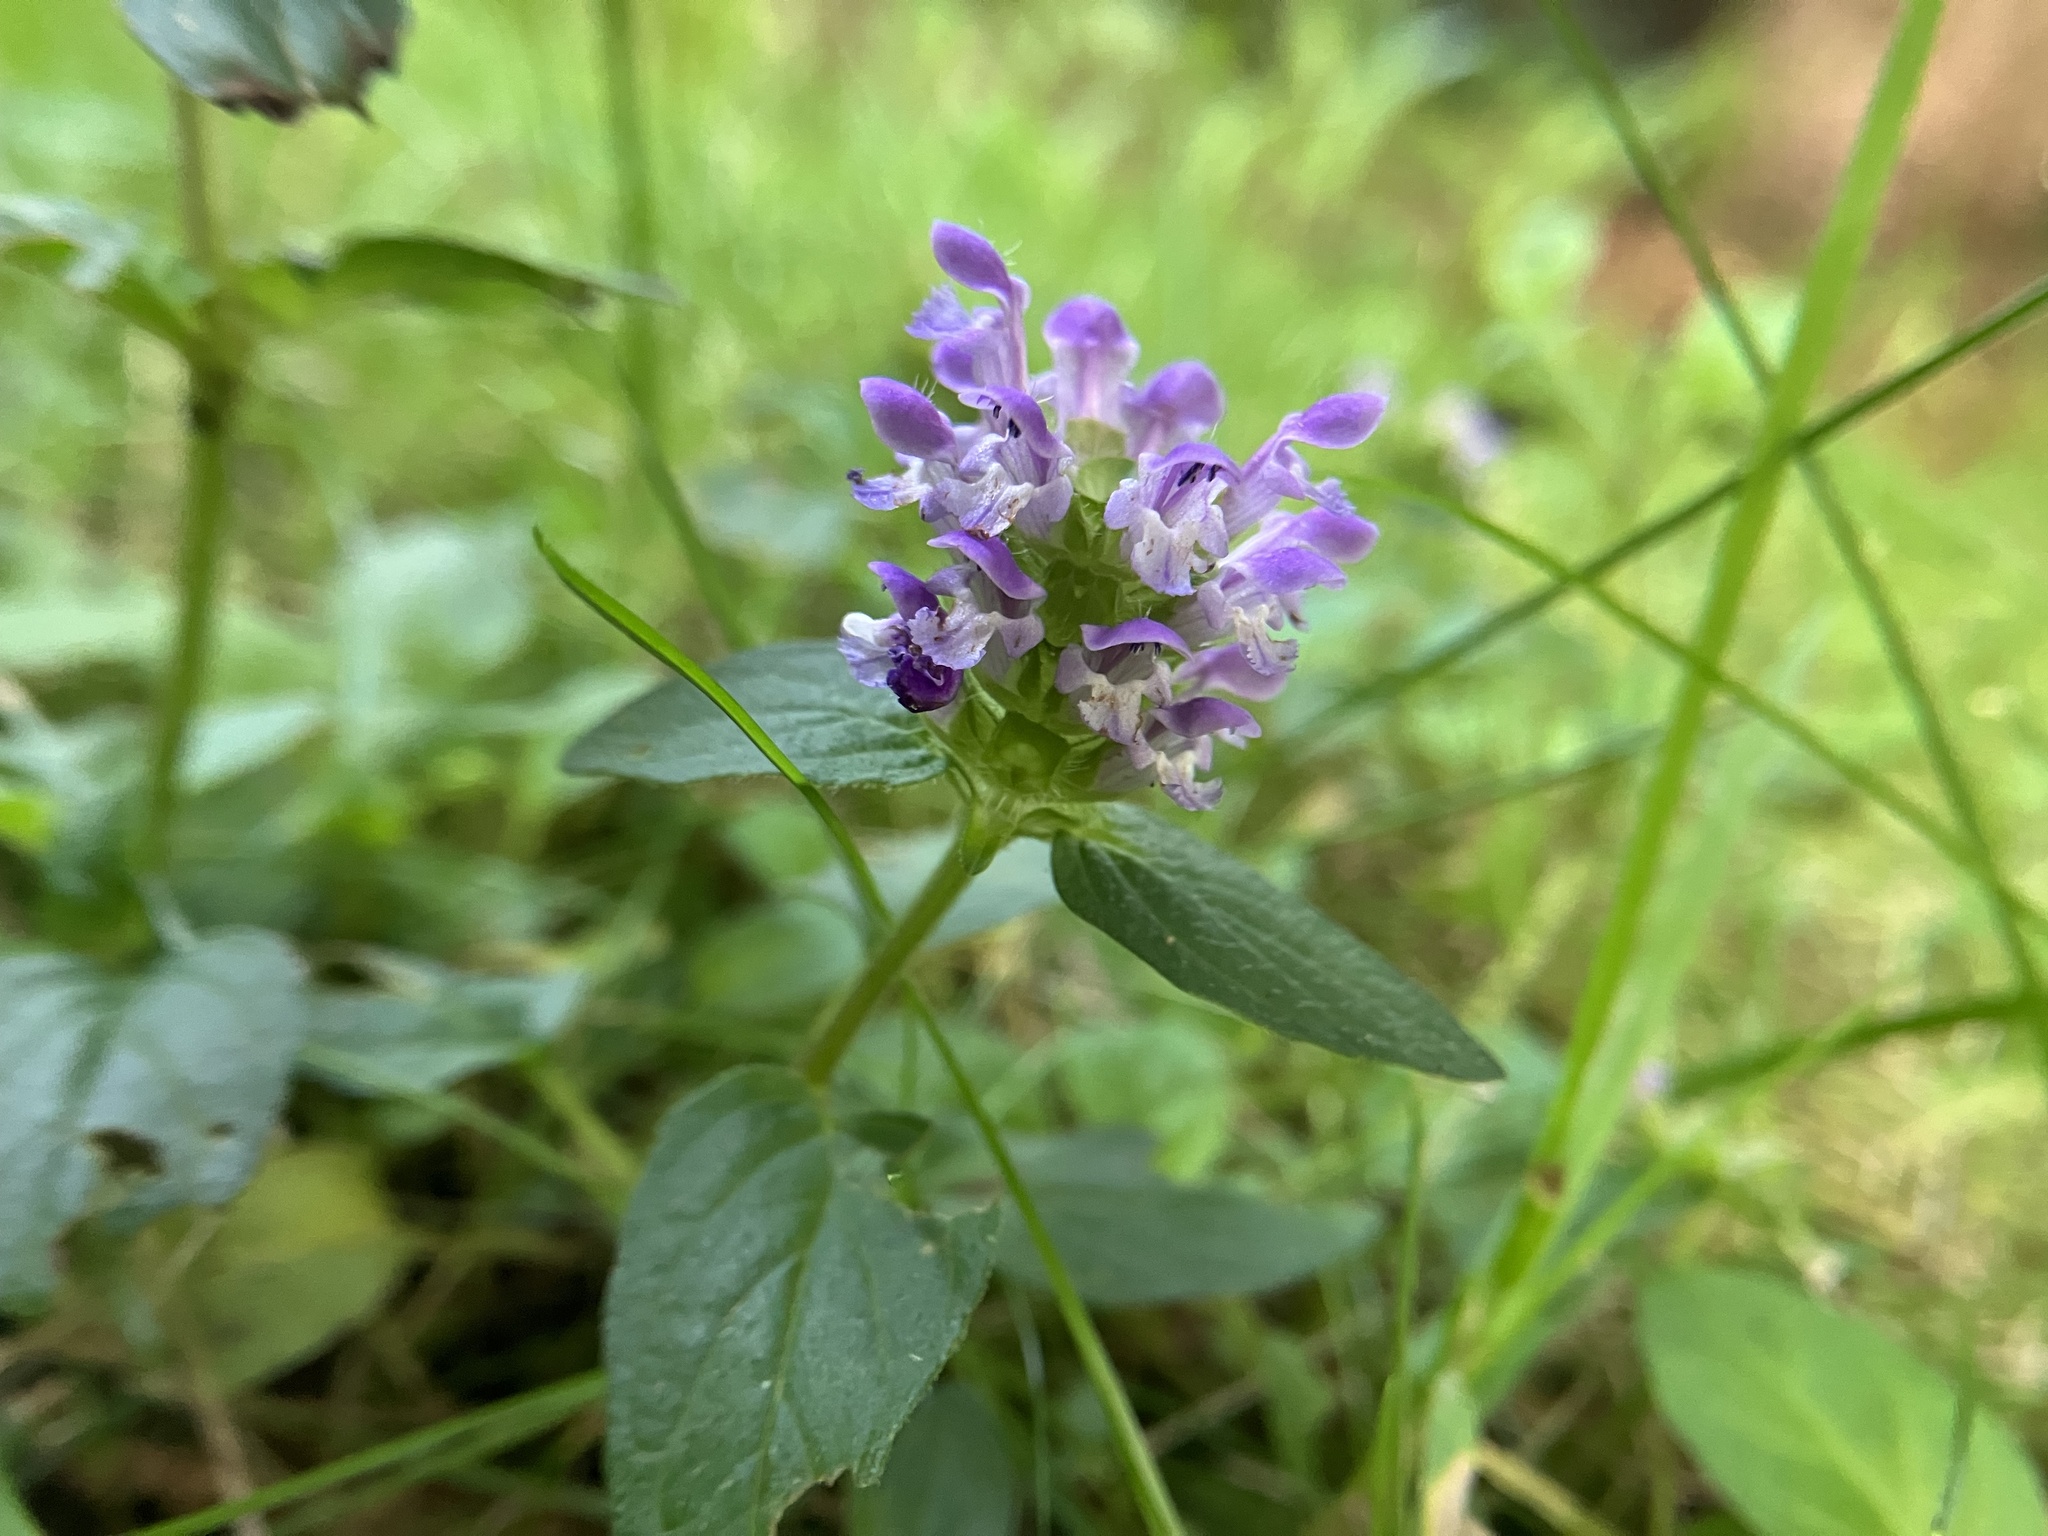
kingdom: Plantae
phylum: Tracheophyta
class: Magnoliopsida
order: Lamiales
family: Lamiaceae
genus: Prunella
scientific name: Prunella vulgaris
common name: Heal-all
